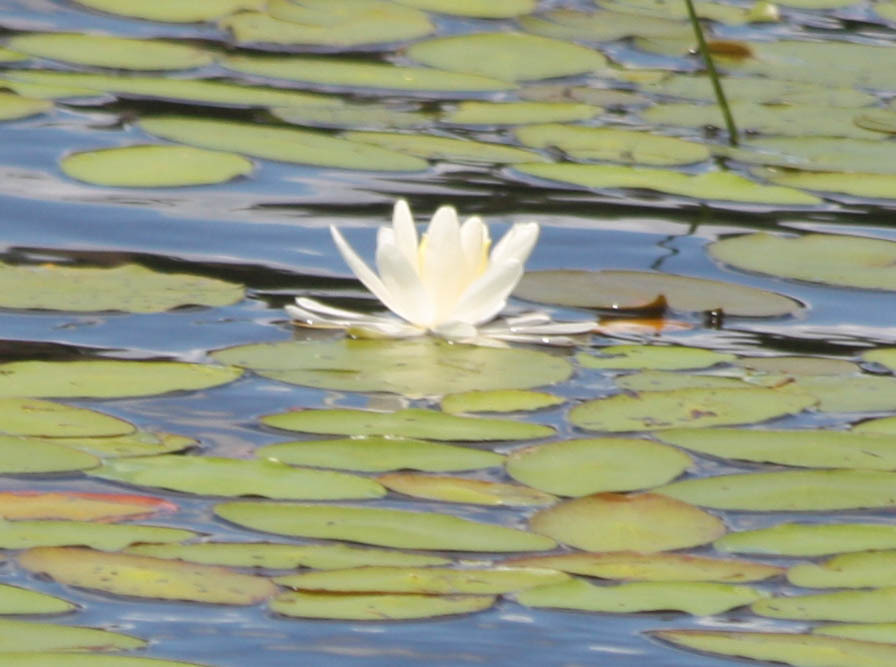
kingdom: Plantae
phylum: Tracheophyta
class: Magnoliopsida
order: Nymphaeales
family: Nymphaeaceae
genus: Nymphaea
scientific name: Nymphaea odorata
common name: Fragrant water-lily
